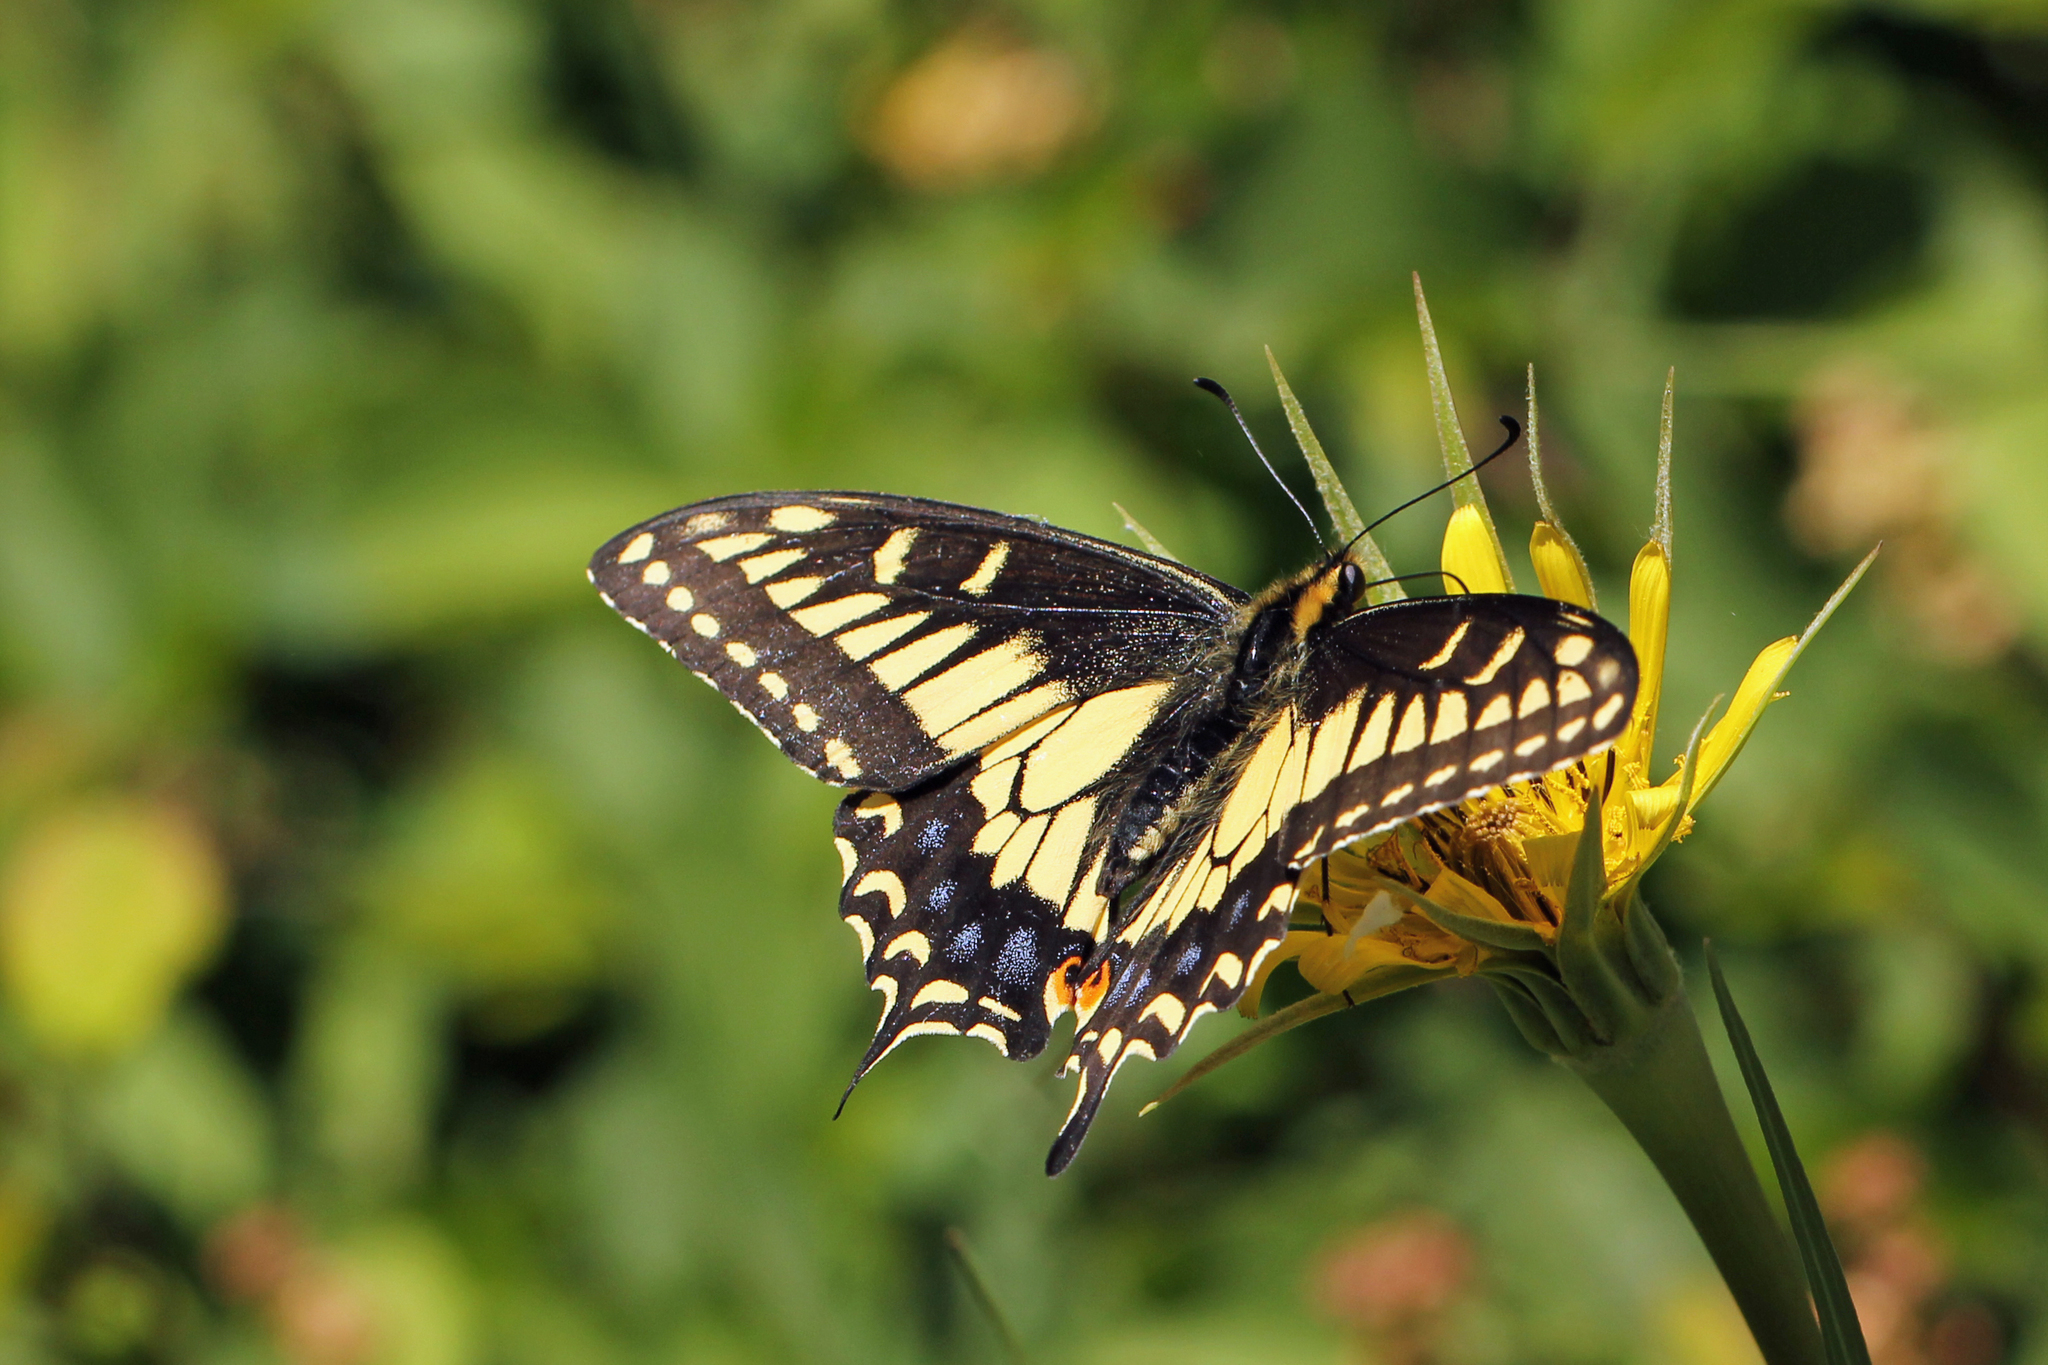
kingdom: Animalia
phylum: Arthropoda
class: Insecta
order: Lepidoptera
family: Papilionidae
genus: Papilio
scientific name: Papilio zelicaon
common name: Anise swallowtail
